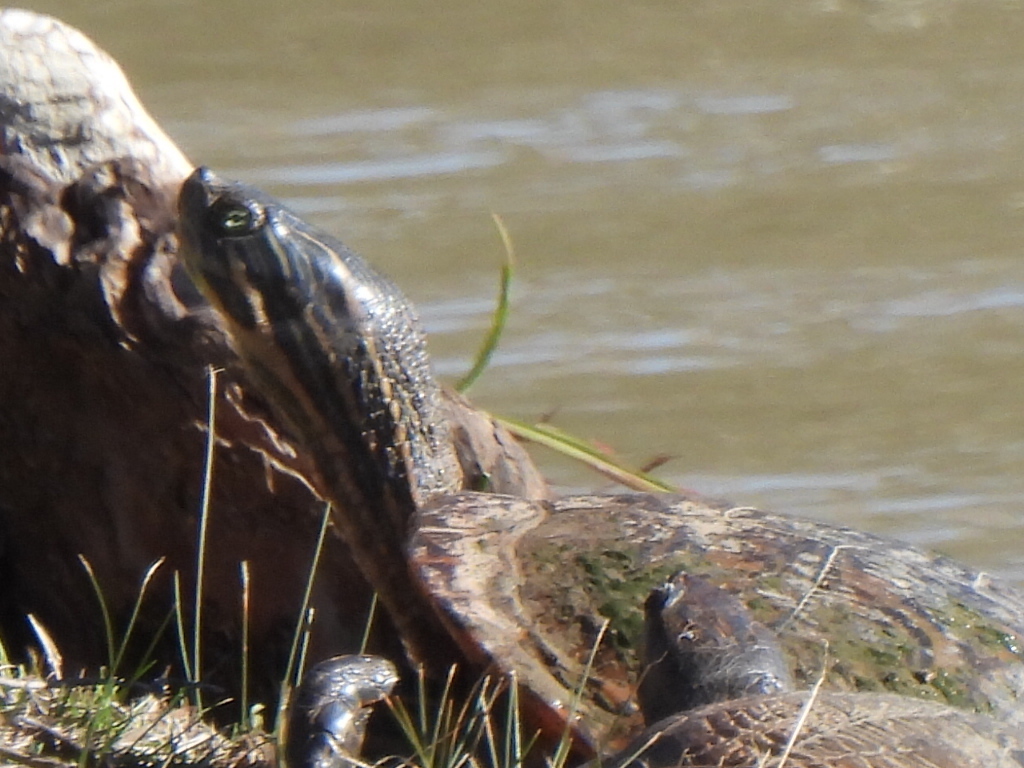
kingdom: Animalia
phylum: Chordata
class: Testudines
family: Emydidae
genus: Pseudemys
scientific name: Pseudemys concinna
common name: Eastern river cooter
